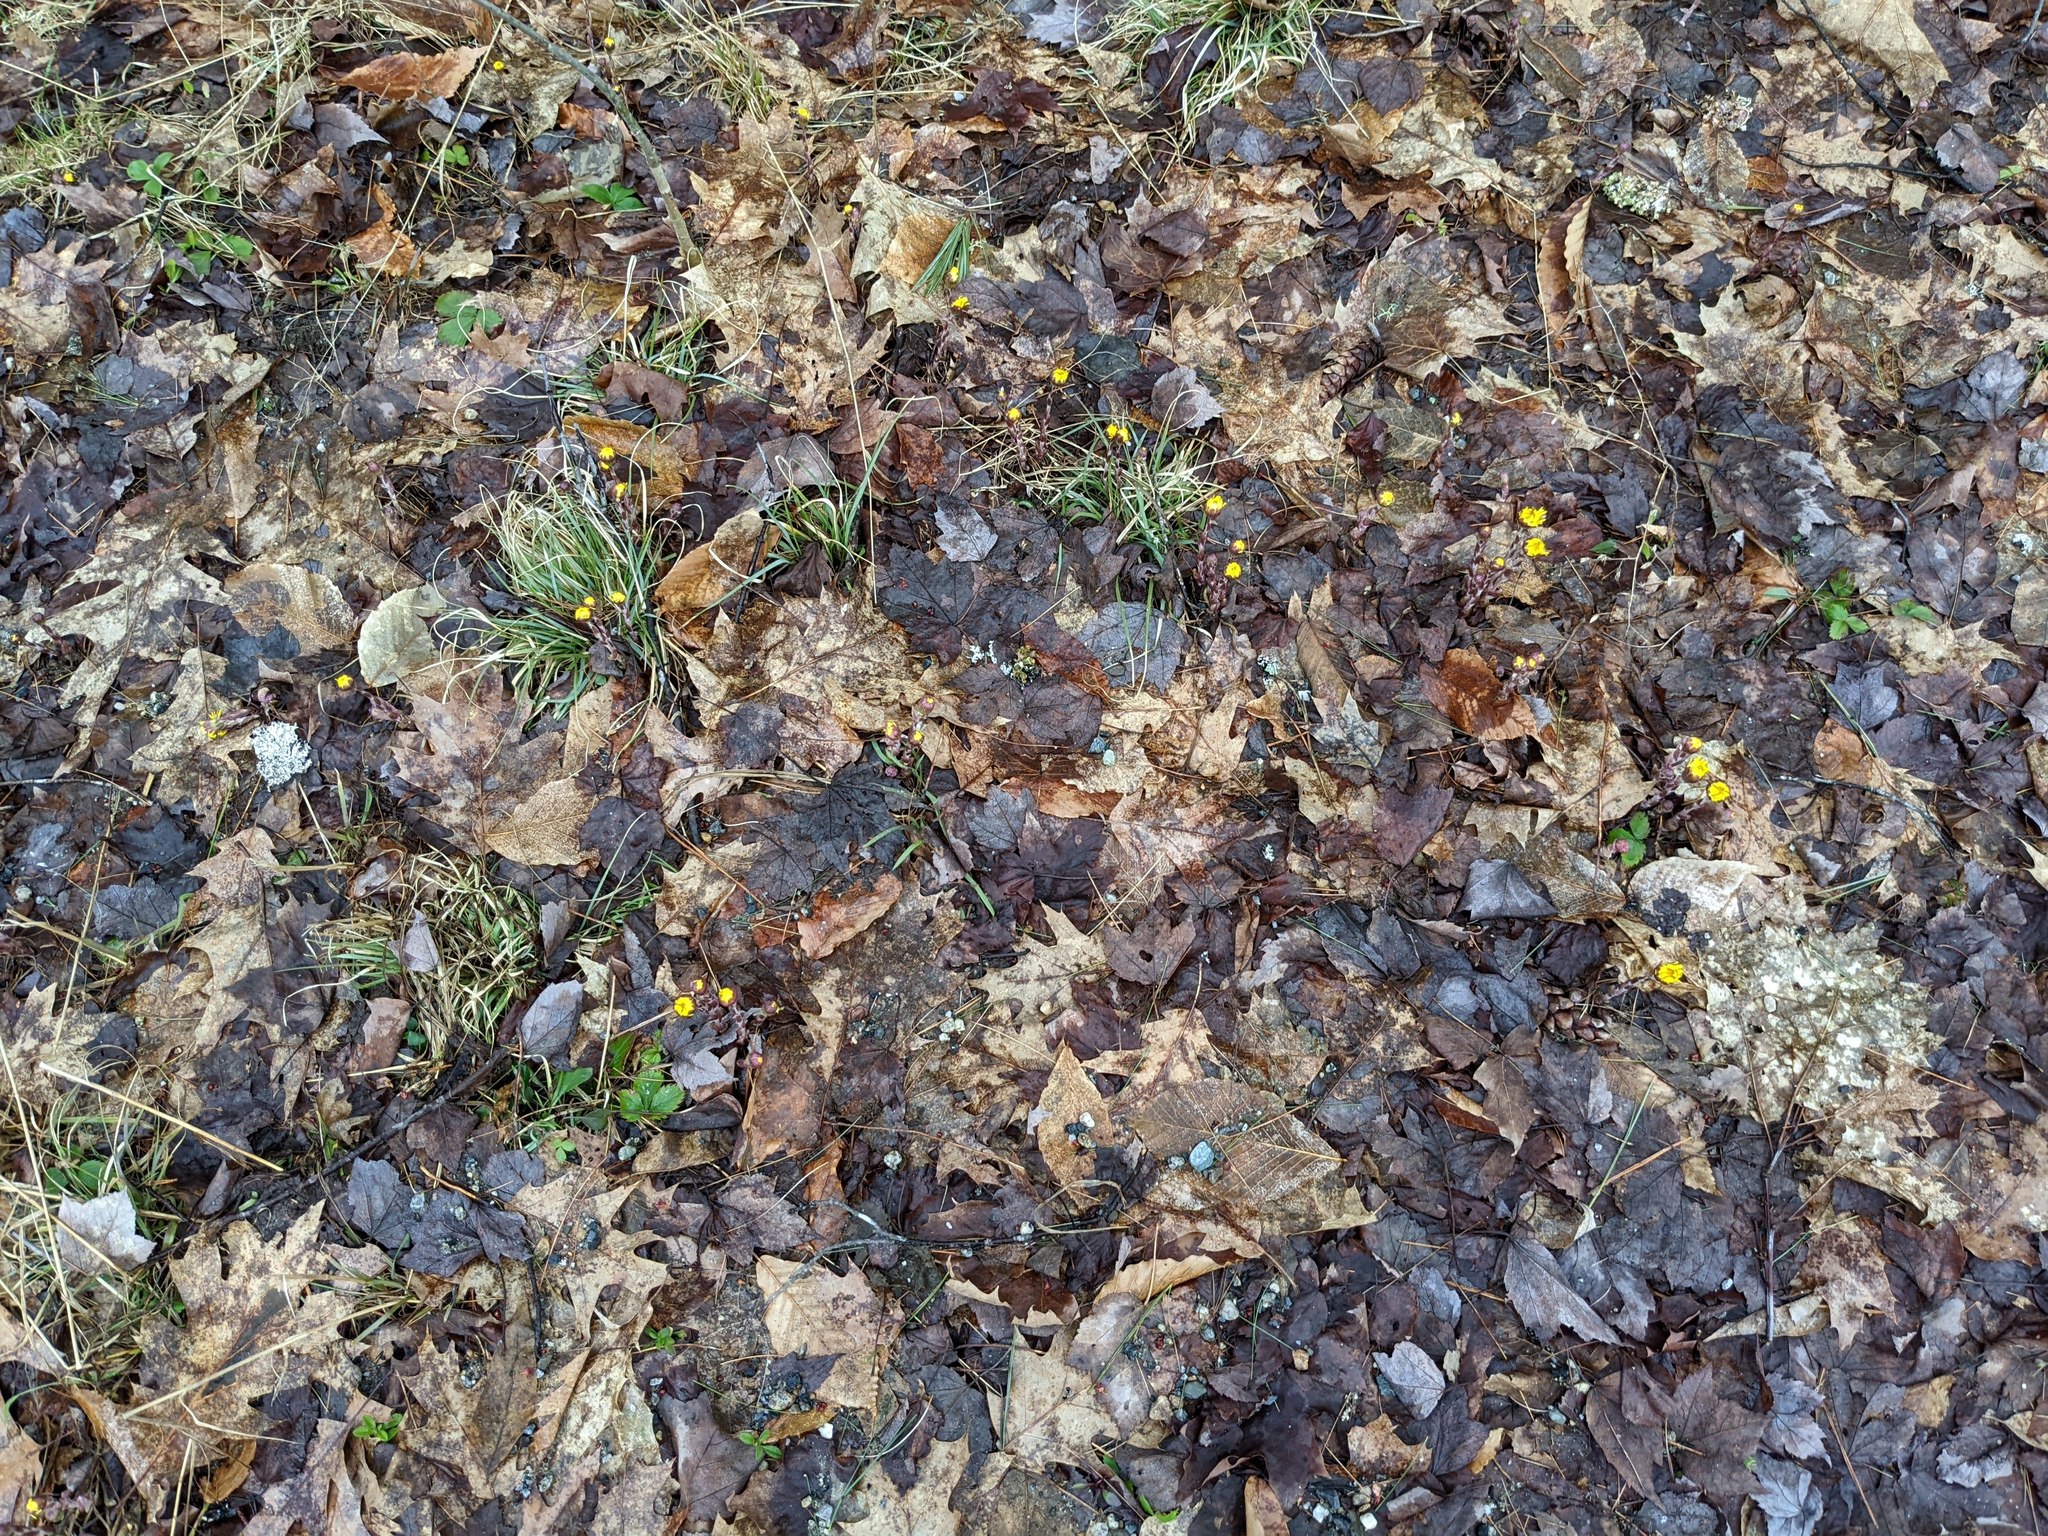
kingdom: Plantae
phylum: Tracheophyta
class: Magnoliopsida
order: Asterales
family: Asteraceae
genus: Tussilago
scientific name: Tussilago farfara
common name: Coltsfoot
